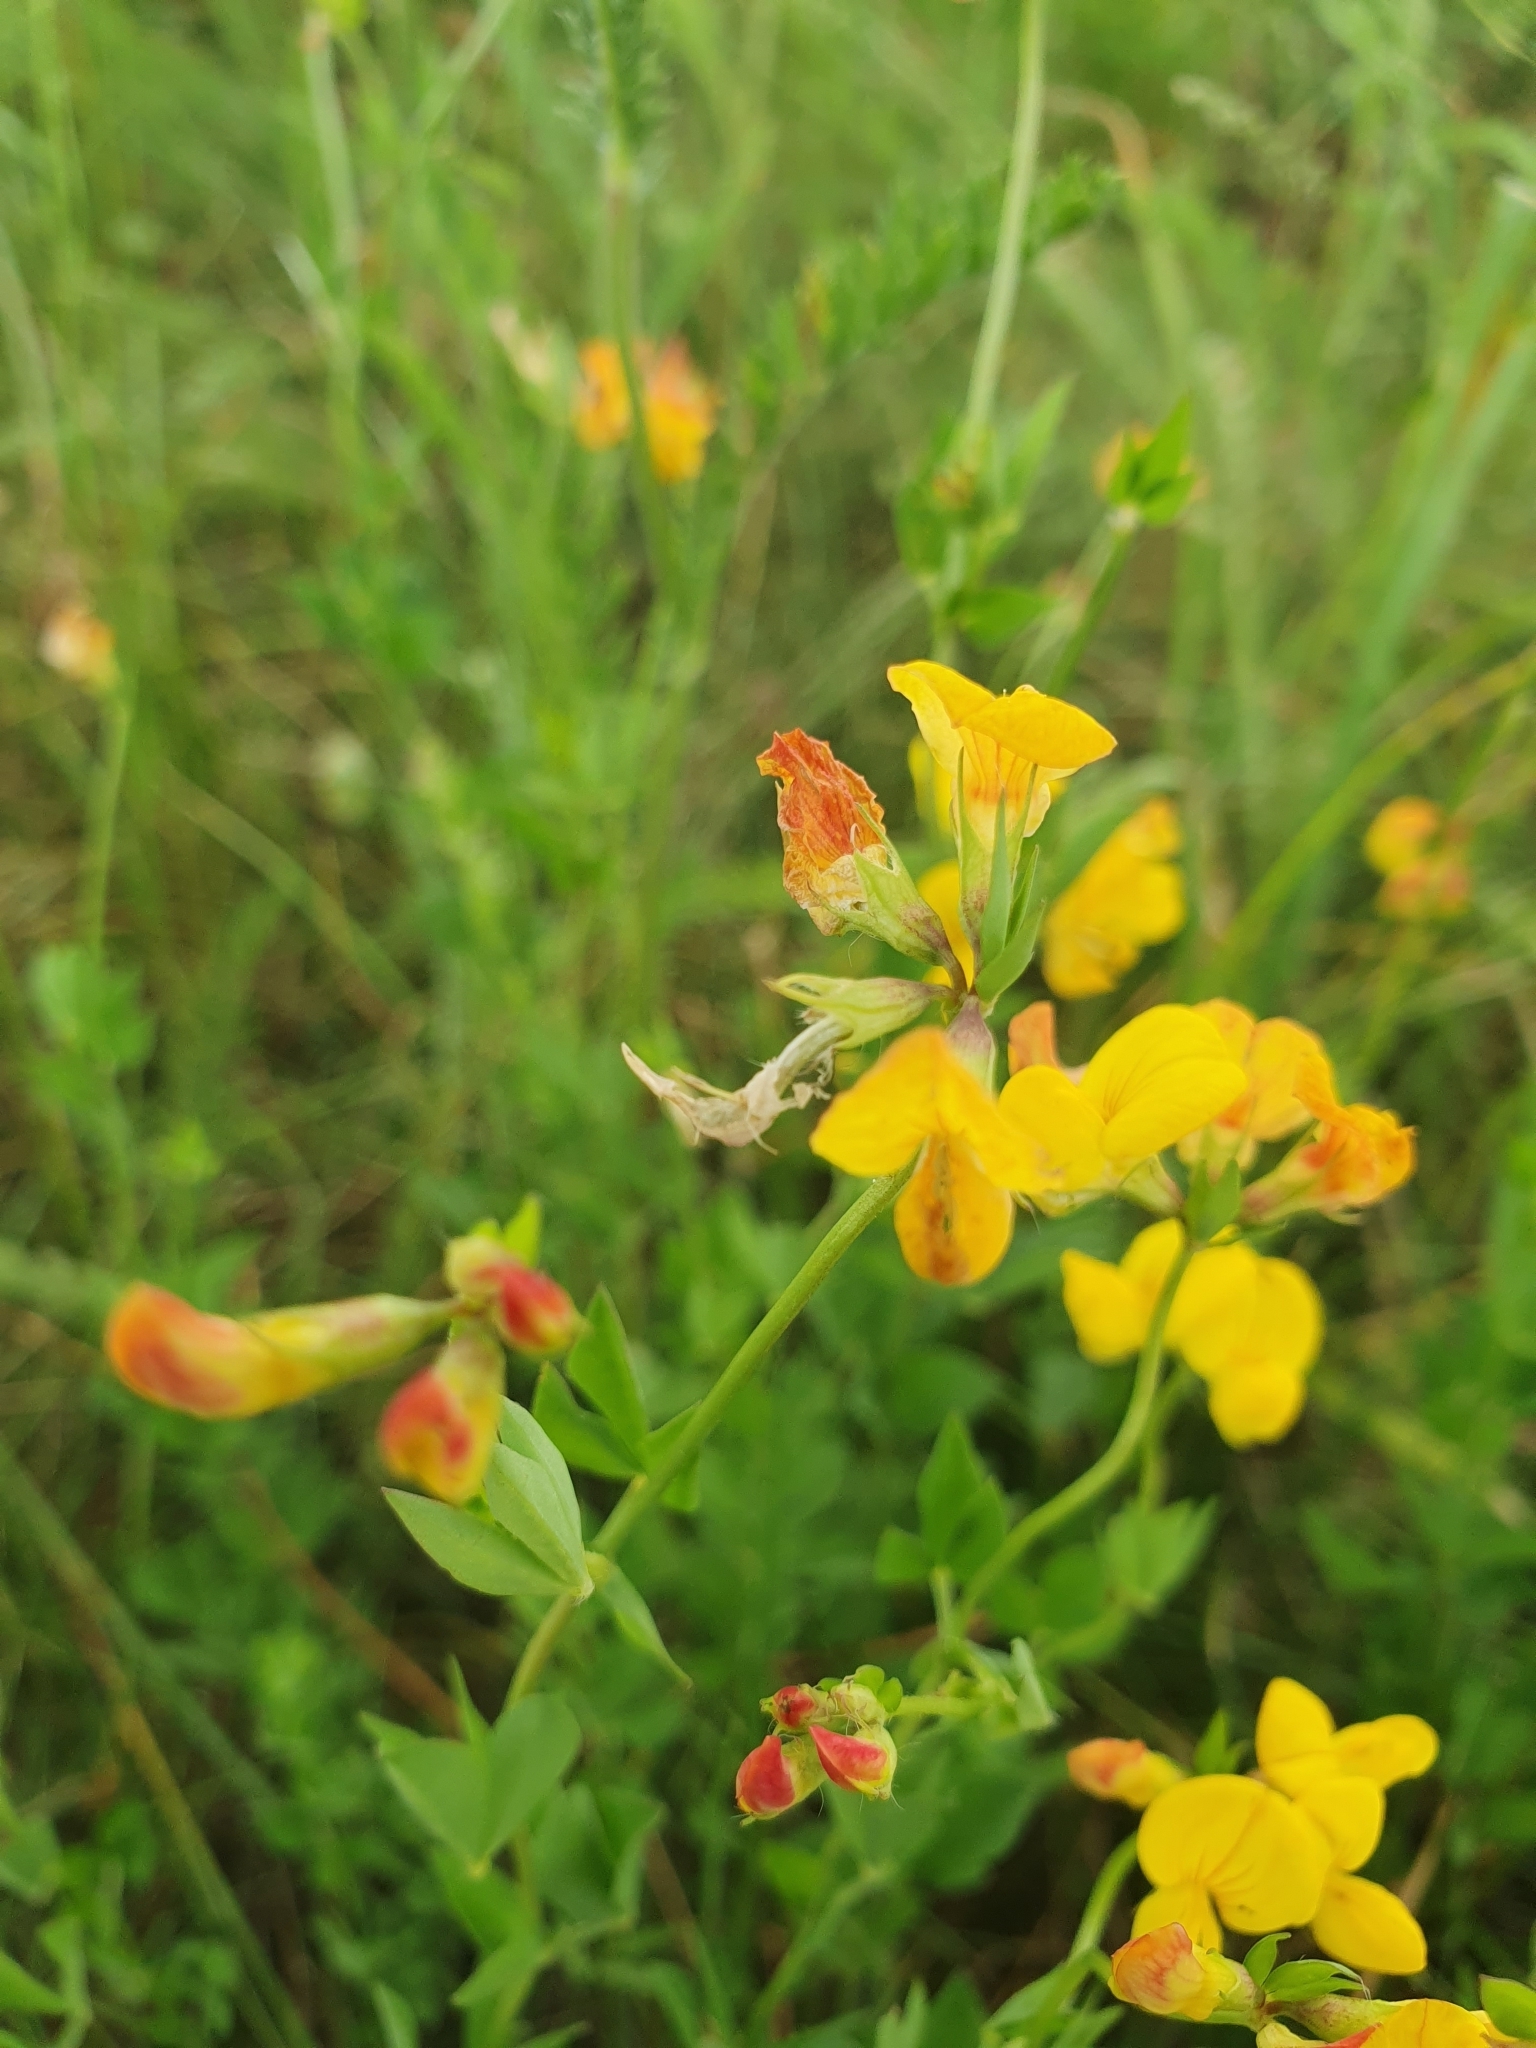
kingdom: Plantae
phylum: Tracheophyta
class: Magnoliopsida
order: Fabales
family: Fabaceae
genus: Lotus
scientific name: Lotus corniculatus
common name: Common bird's-foot-trefoil
